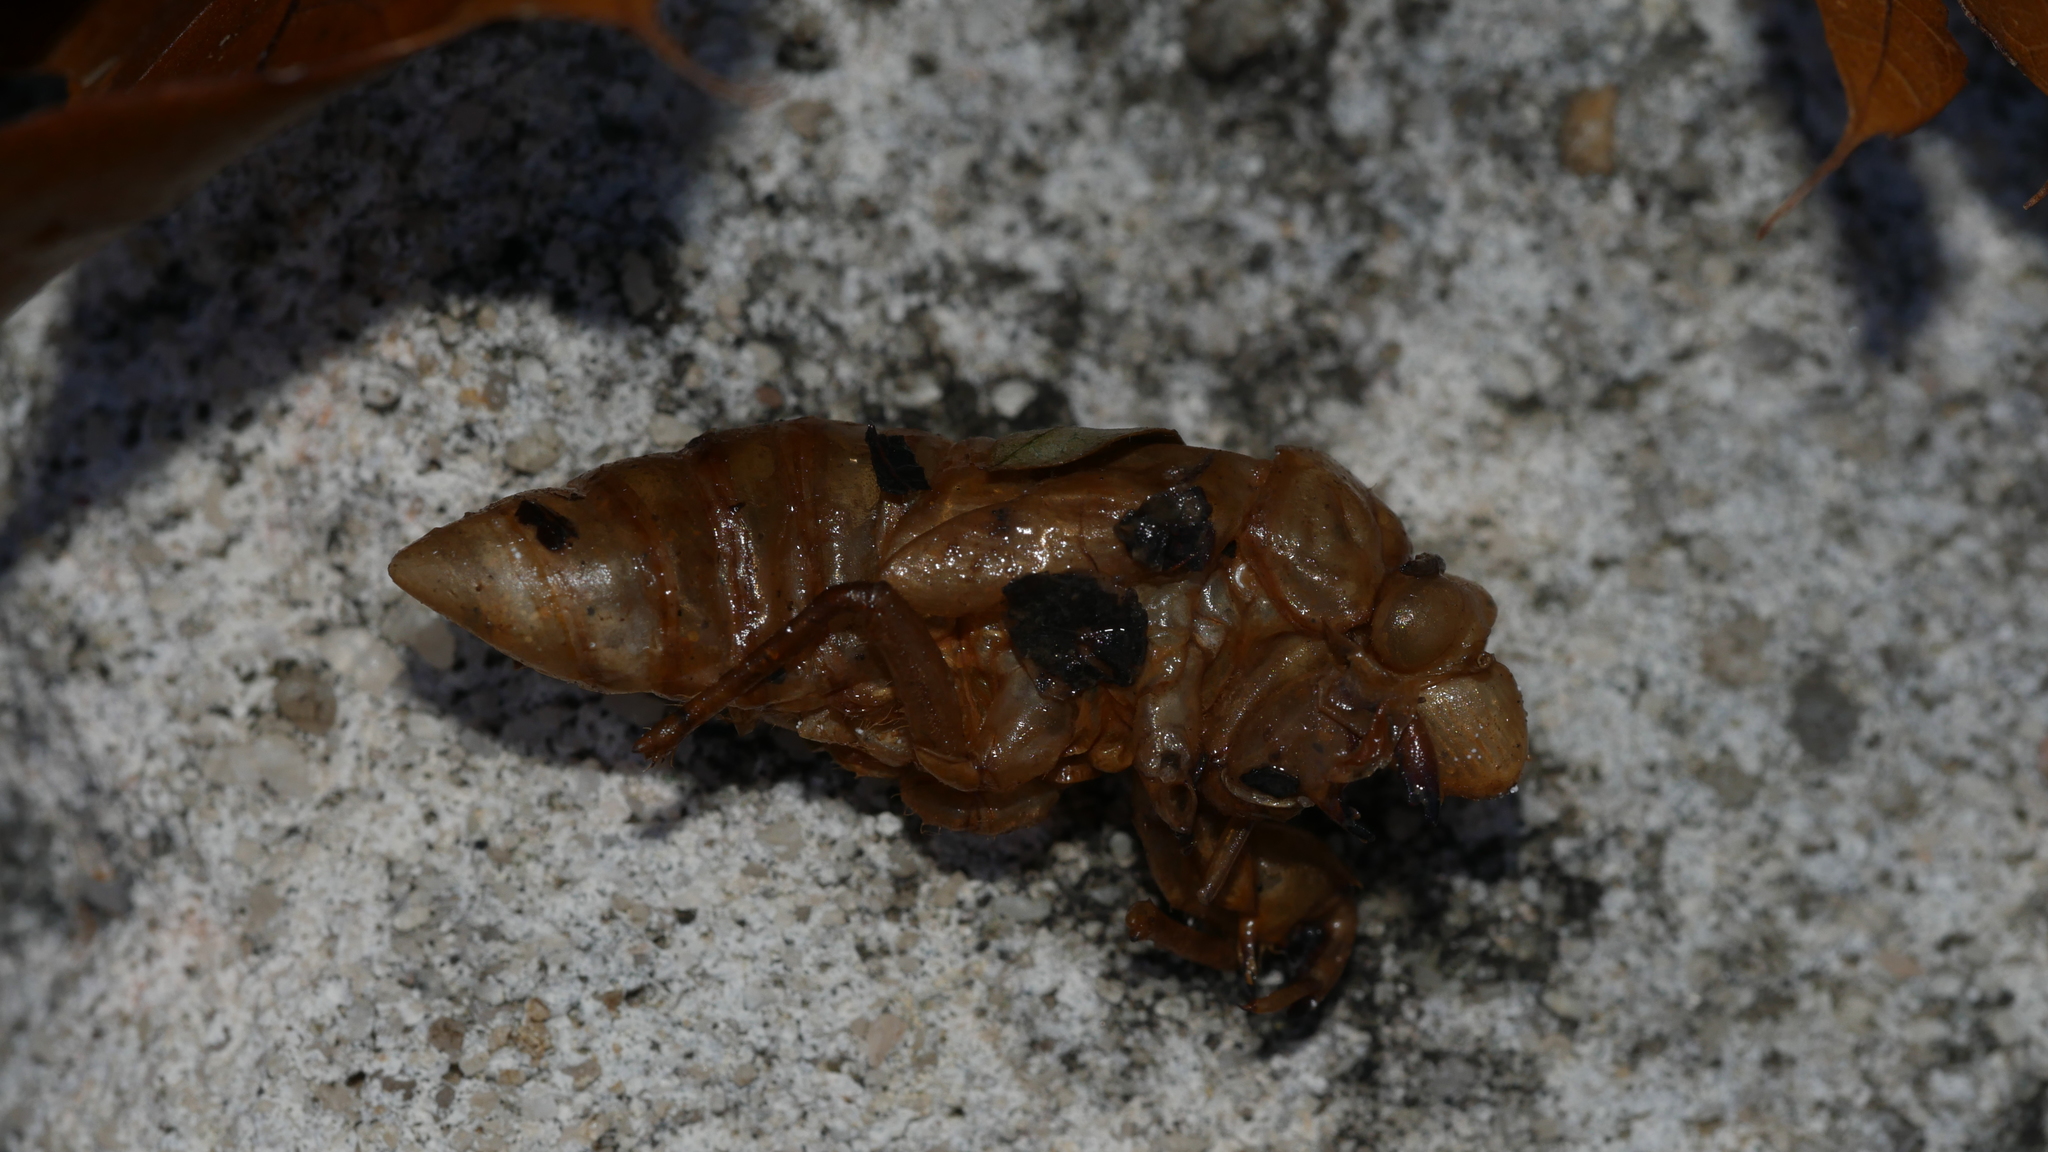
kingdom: Animalia
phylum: Arthropoda
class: Insecta
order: Hemiptera
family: Cicadidae
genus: Magicicada
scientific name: Magicicada
